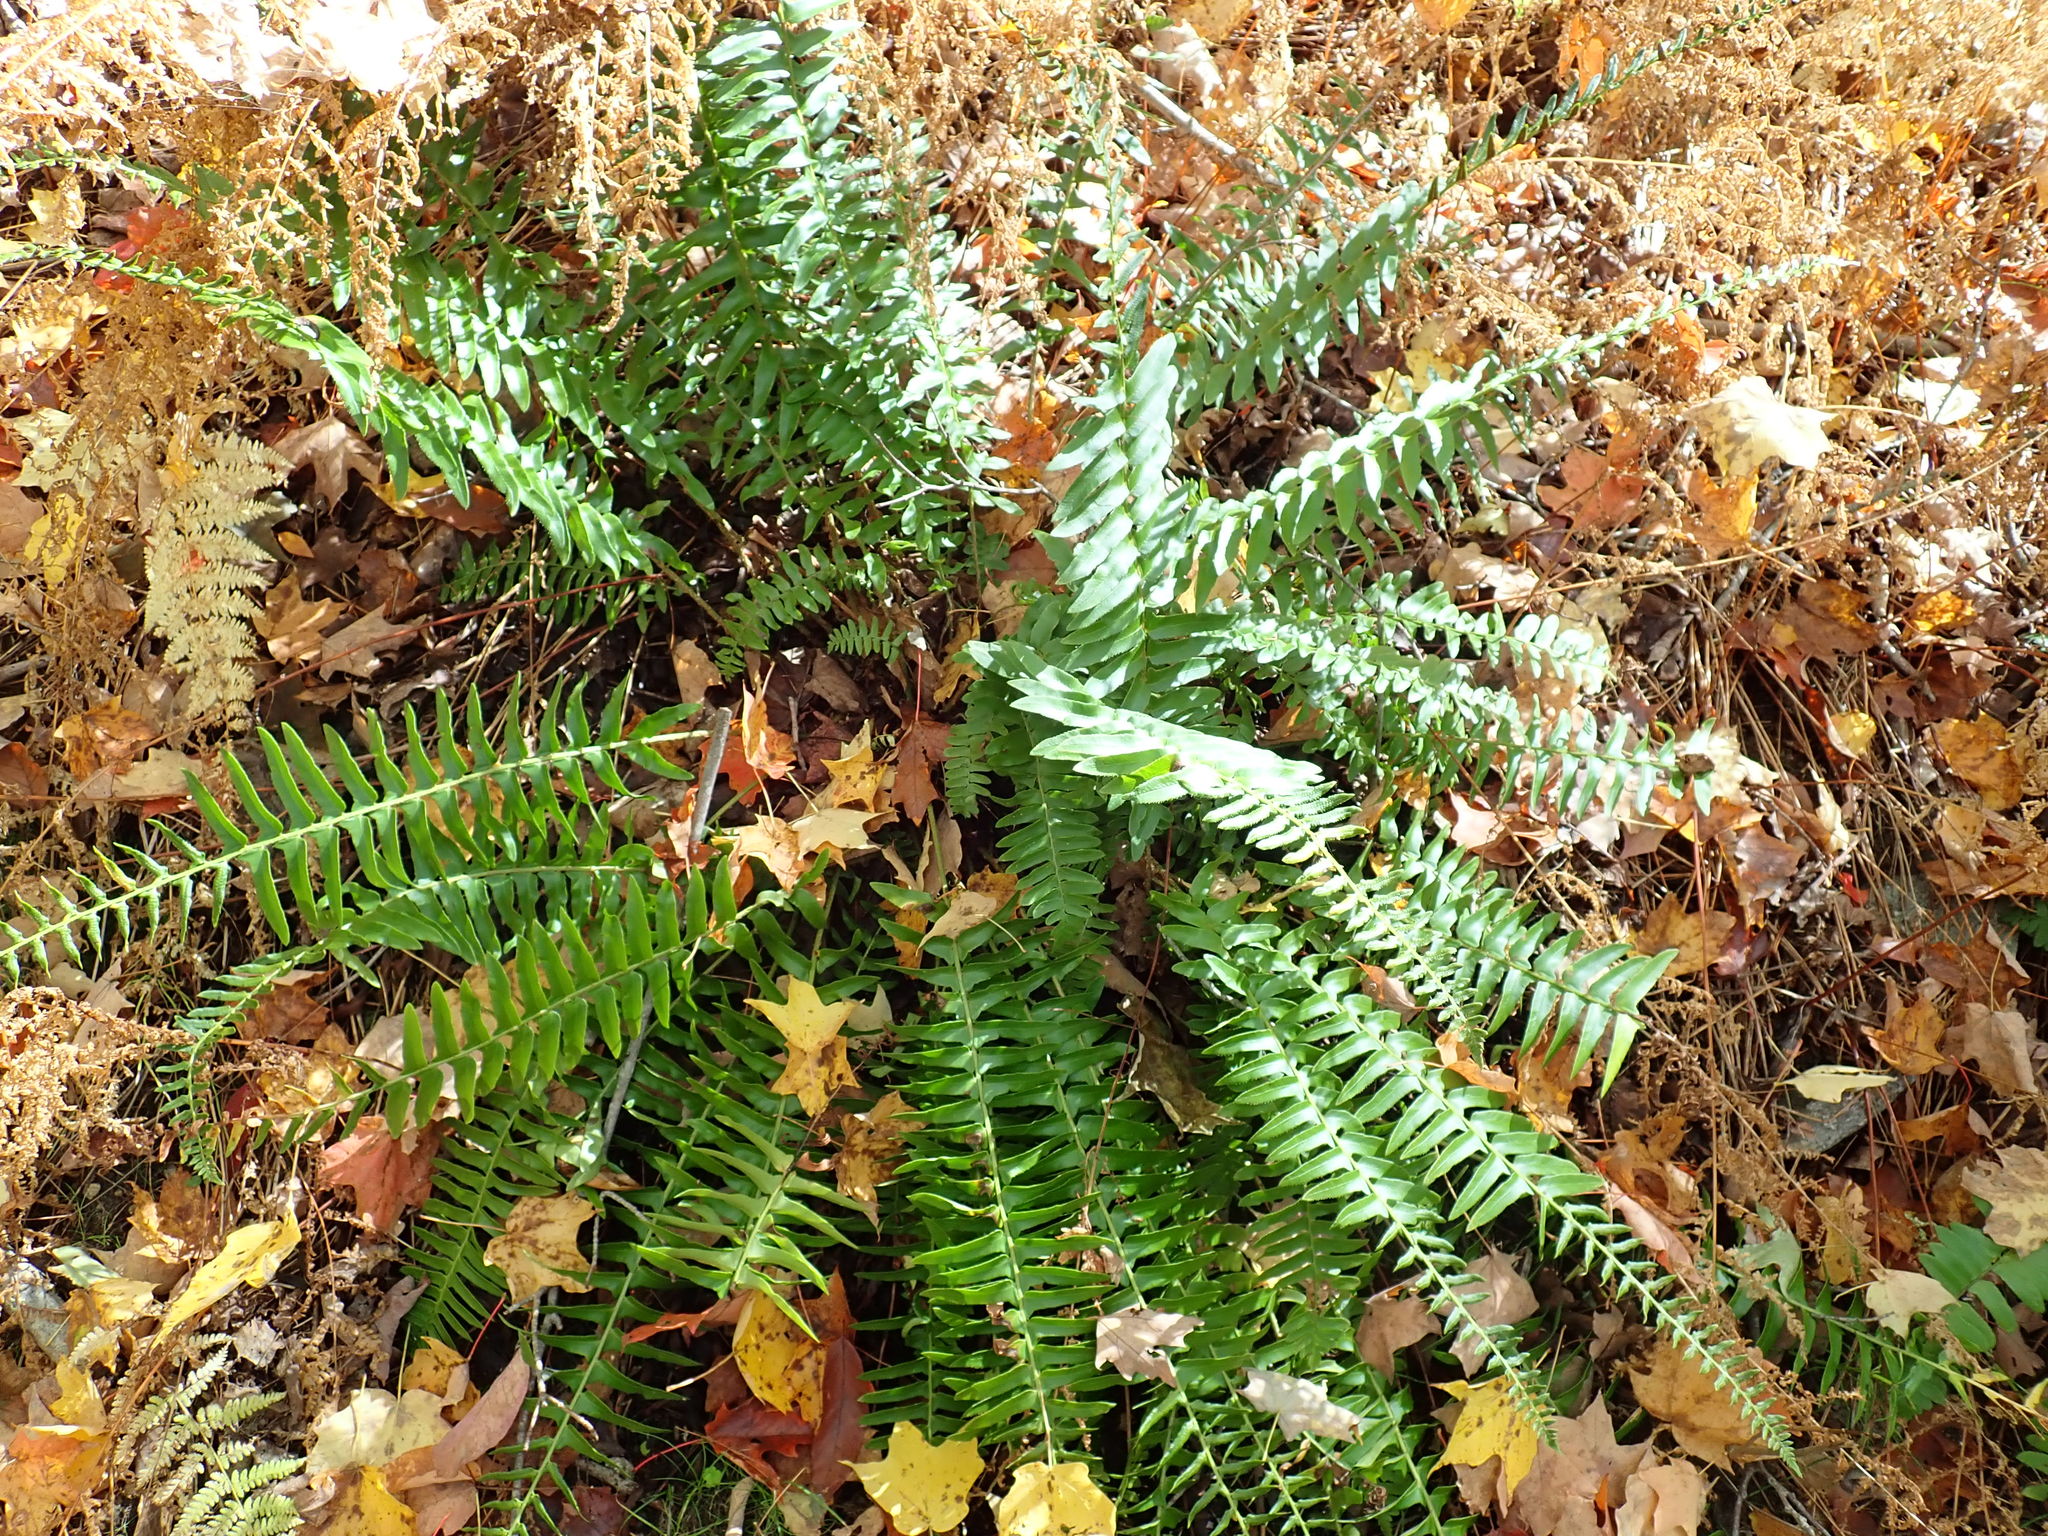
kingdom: Plantae
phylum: Tracheophyta
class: Polypodiopsida
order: Polypodiales
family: Dryopteridaceae
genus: Polystichum
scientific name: Polystichum acrostichoides
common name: Christmas fern
